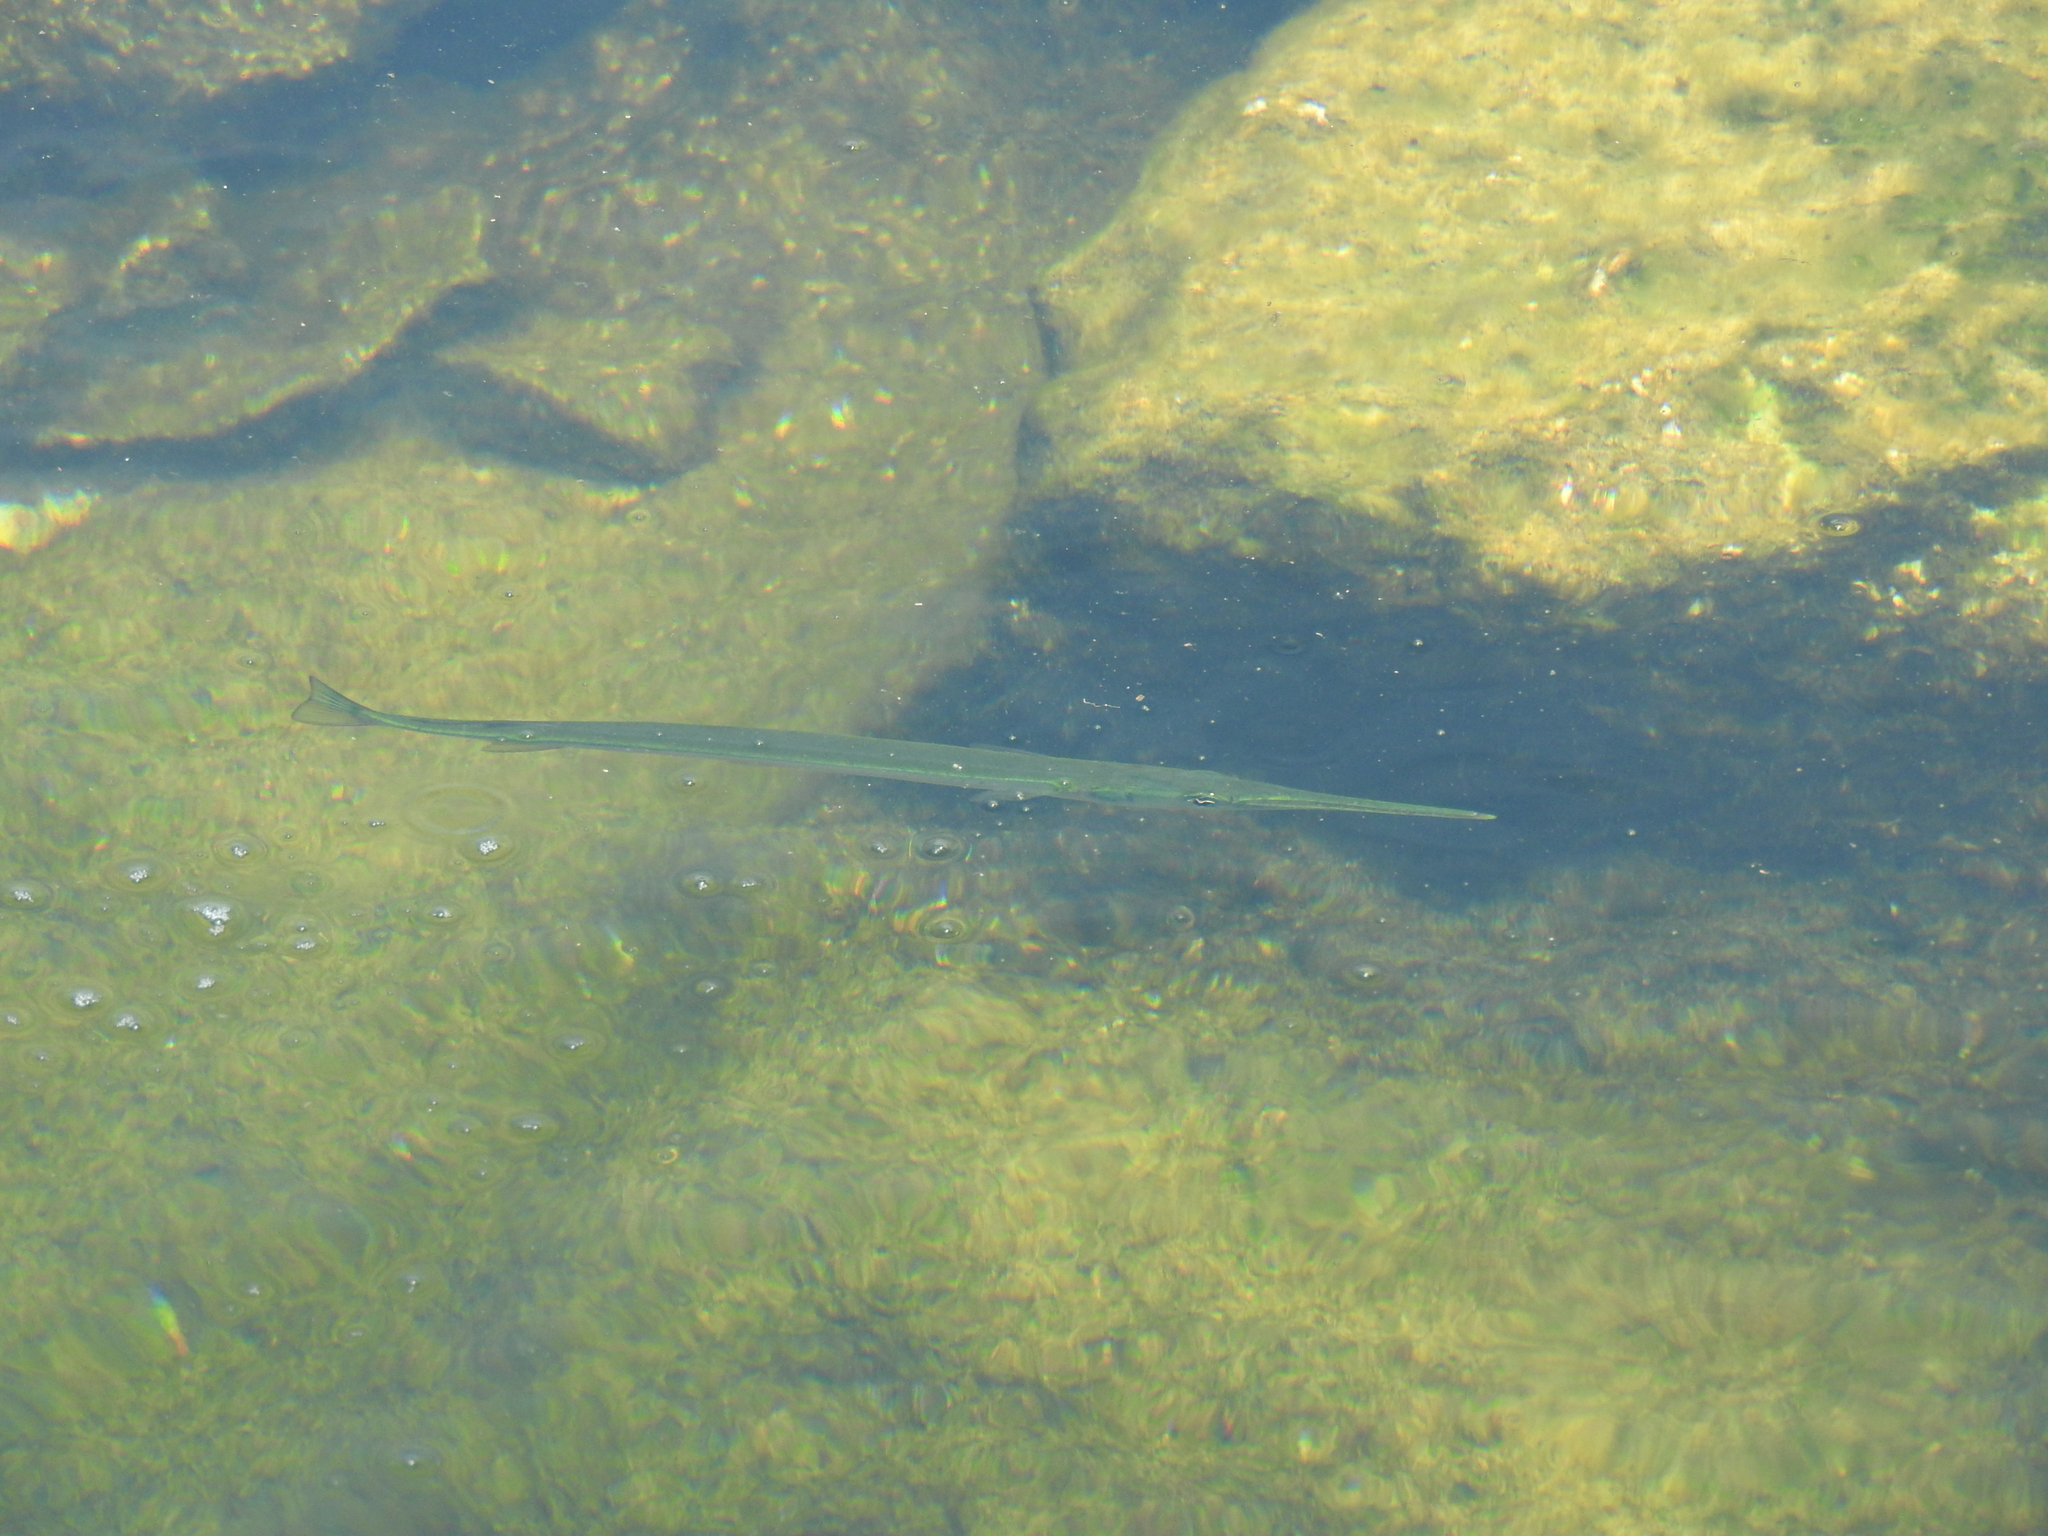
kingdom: Animalia
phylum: Chordata
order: Beloniformes
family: Belonidae
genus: Strongylura
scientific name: Strongylura notata
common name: Redfin needlefish
